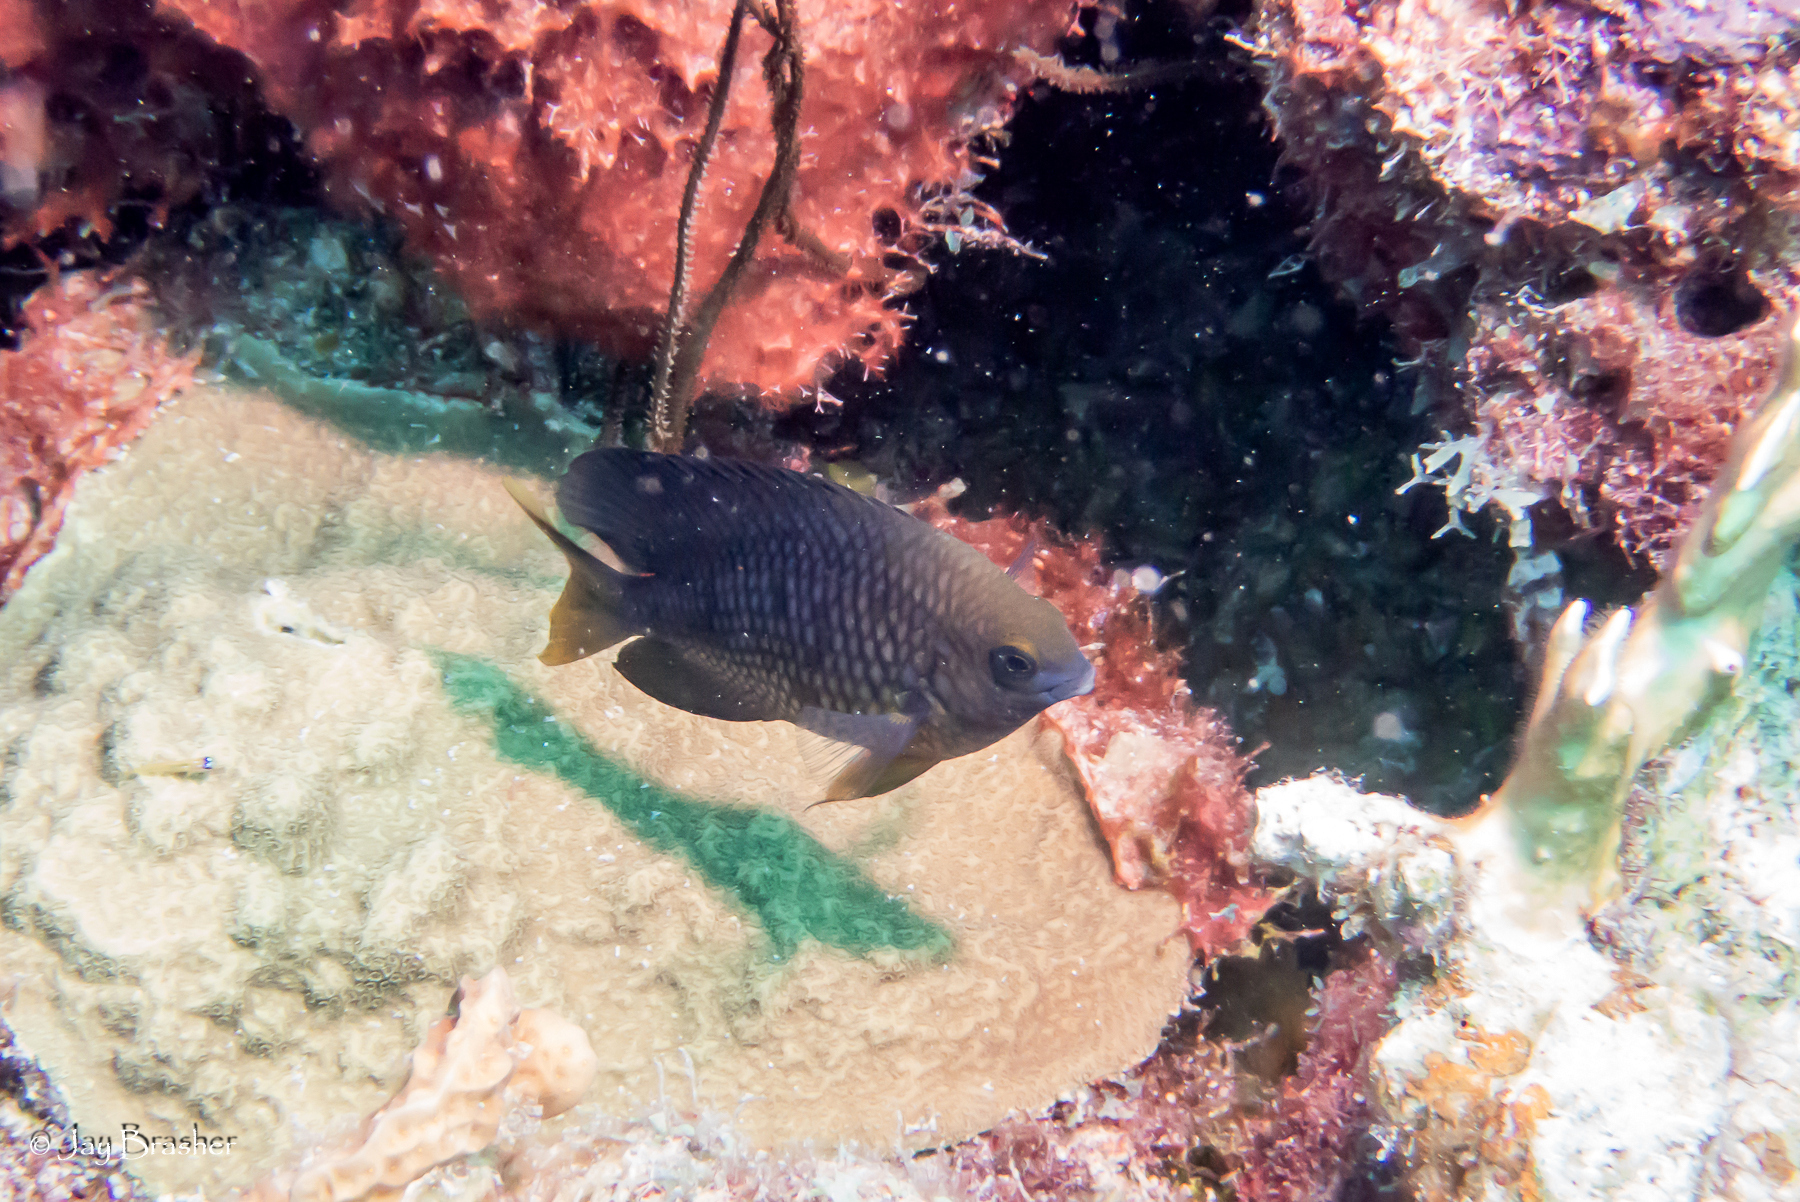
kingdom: Animalia
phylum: Chordata
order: Perciformes
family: Pomacentridae
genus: Stegastes
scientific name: Stegastes planifrons
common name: Threespot damselfish
